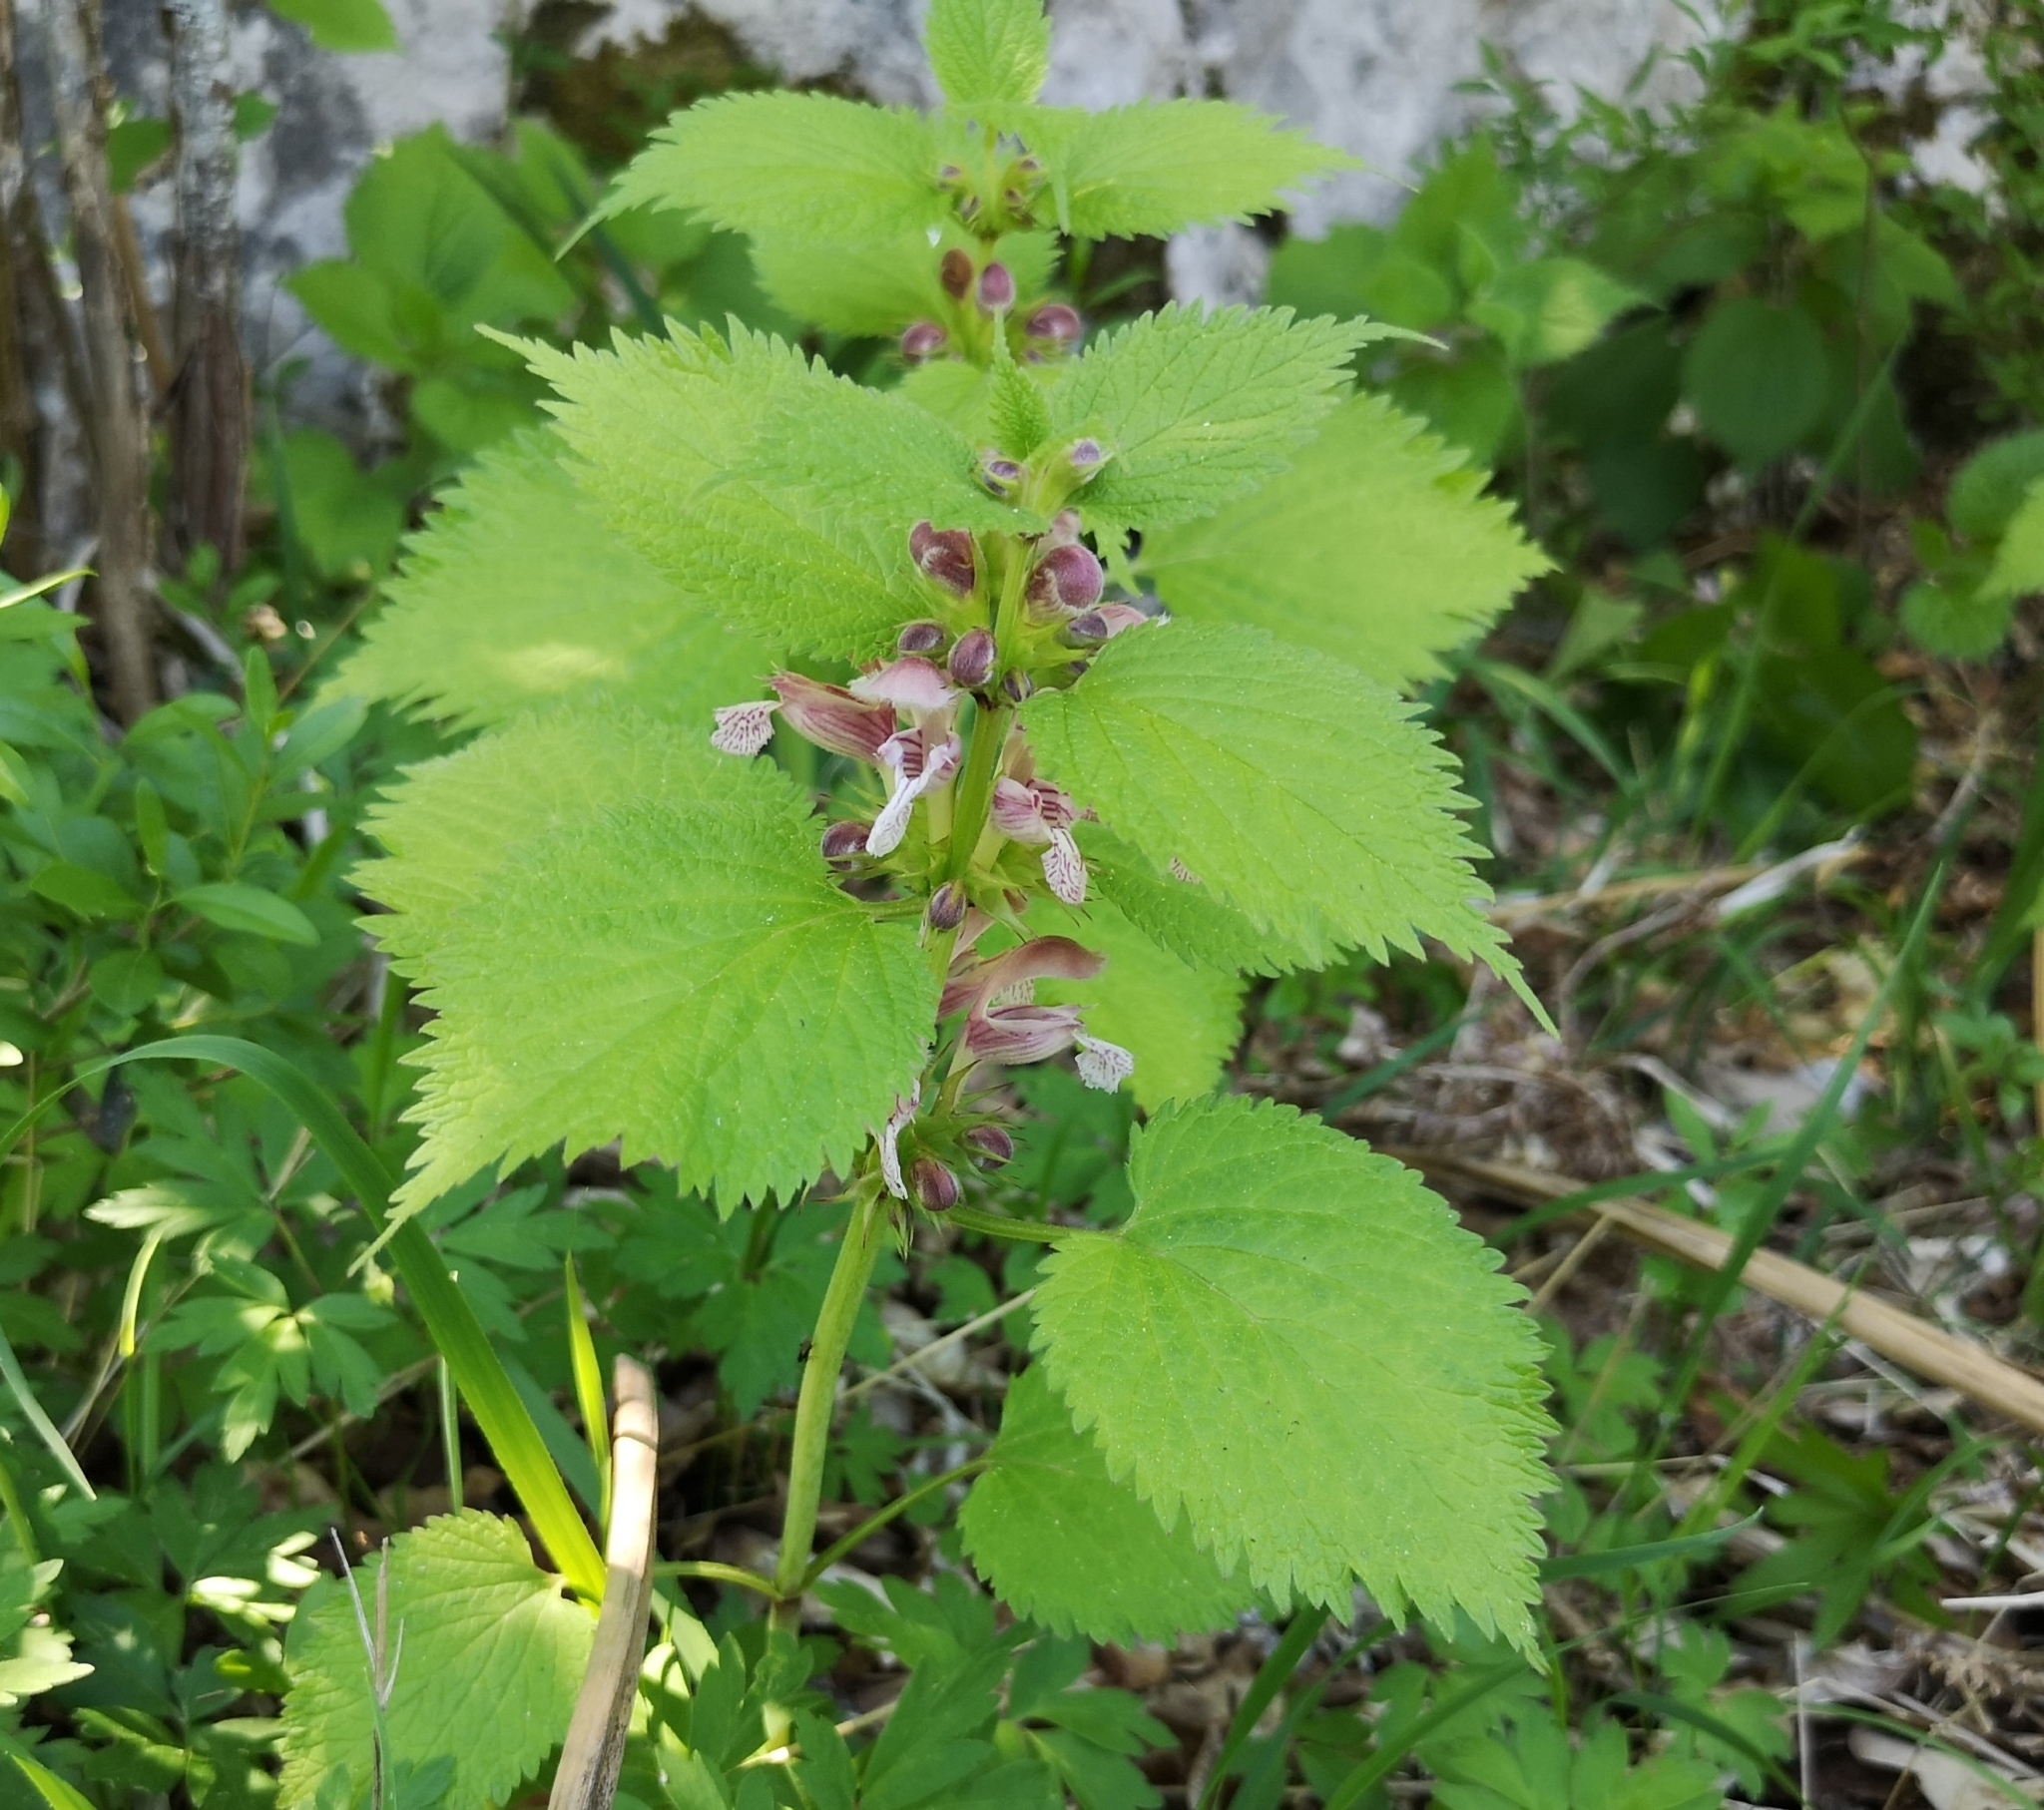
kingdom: Plantae
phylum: Tracheophyta
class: Magnoliopsida
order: Lamiales
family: Lamiaceae
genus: Lamium
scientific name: Lamium orvala
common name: Balm-leaved archangel
